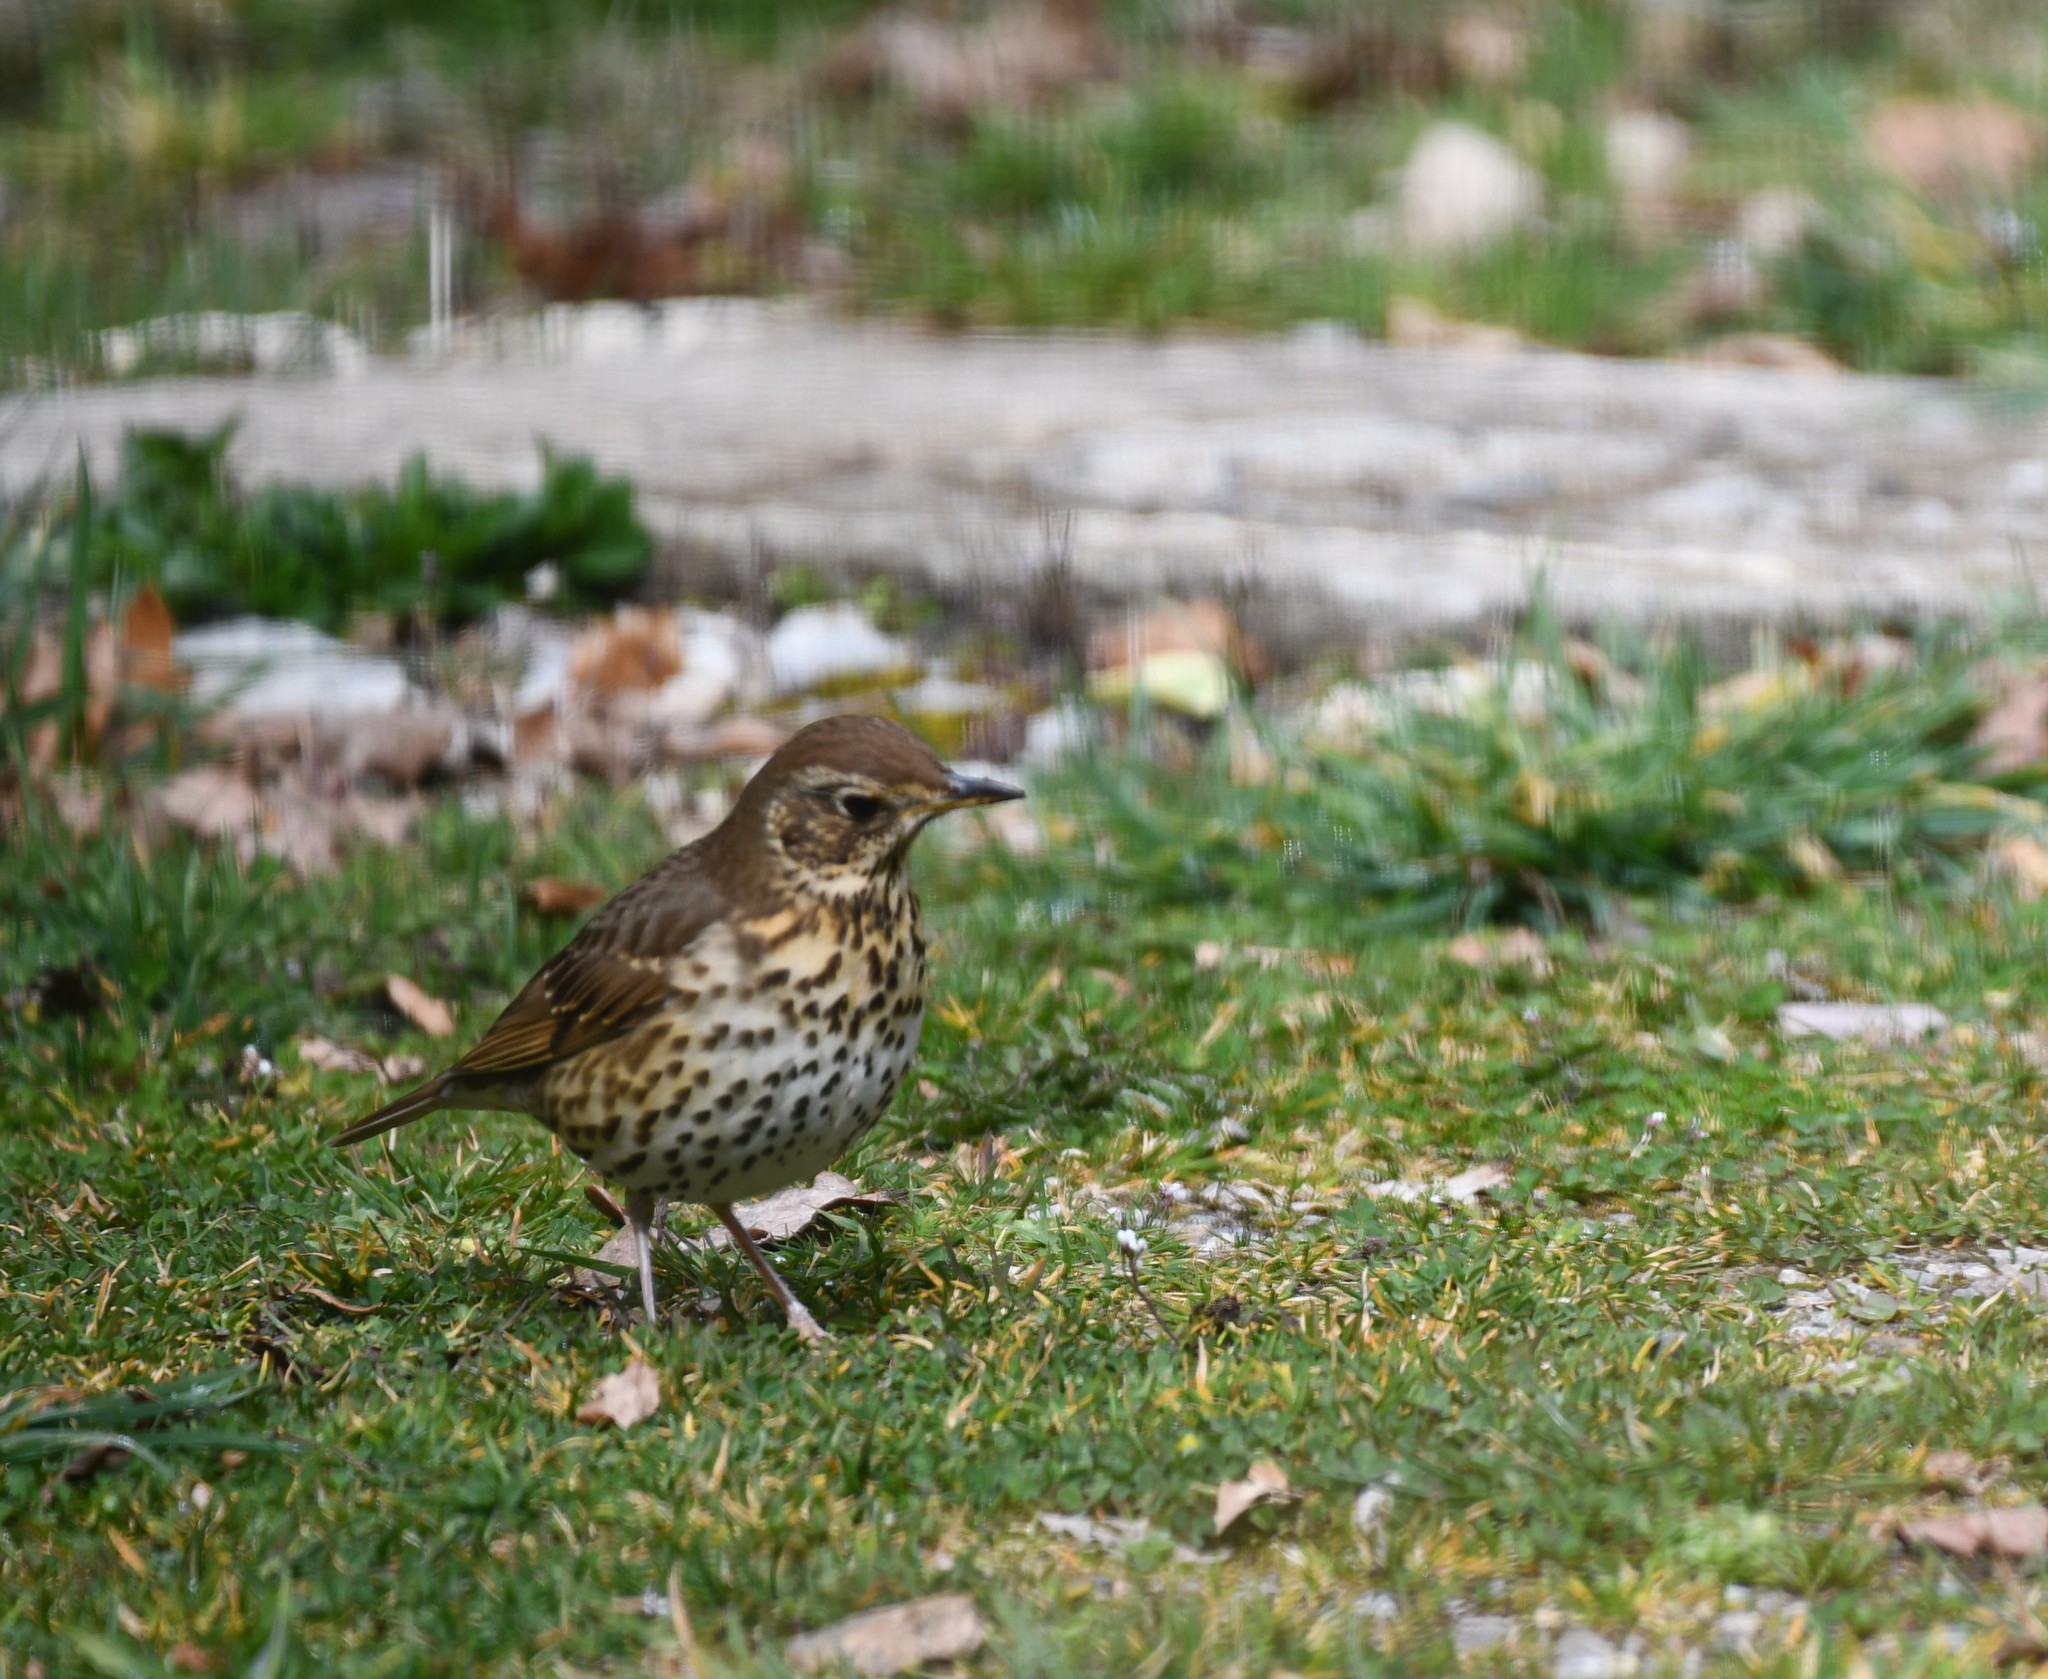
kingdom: Animalia
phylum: Chordata
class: Aves
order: Passeriformes
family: Turdidae
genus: Turdus
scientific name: Turdus philomelos
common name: Song thrush
